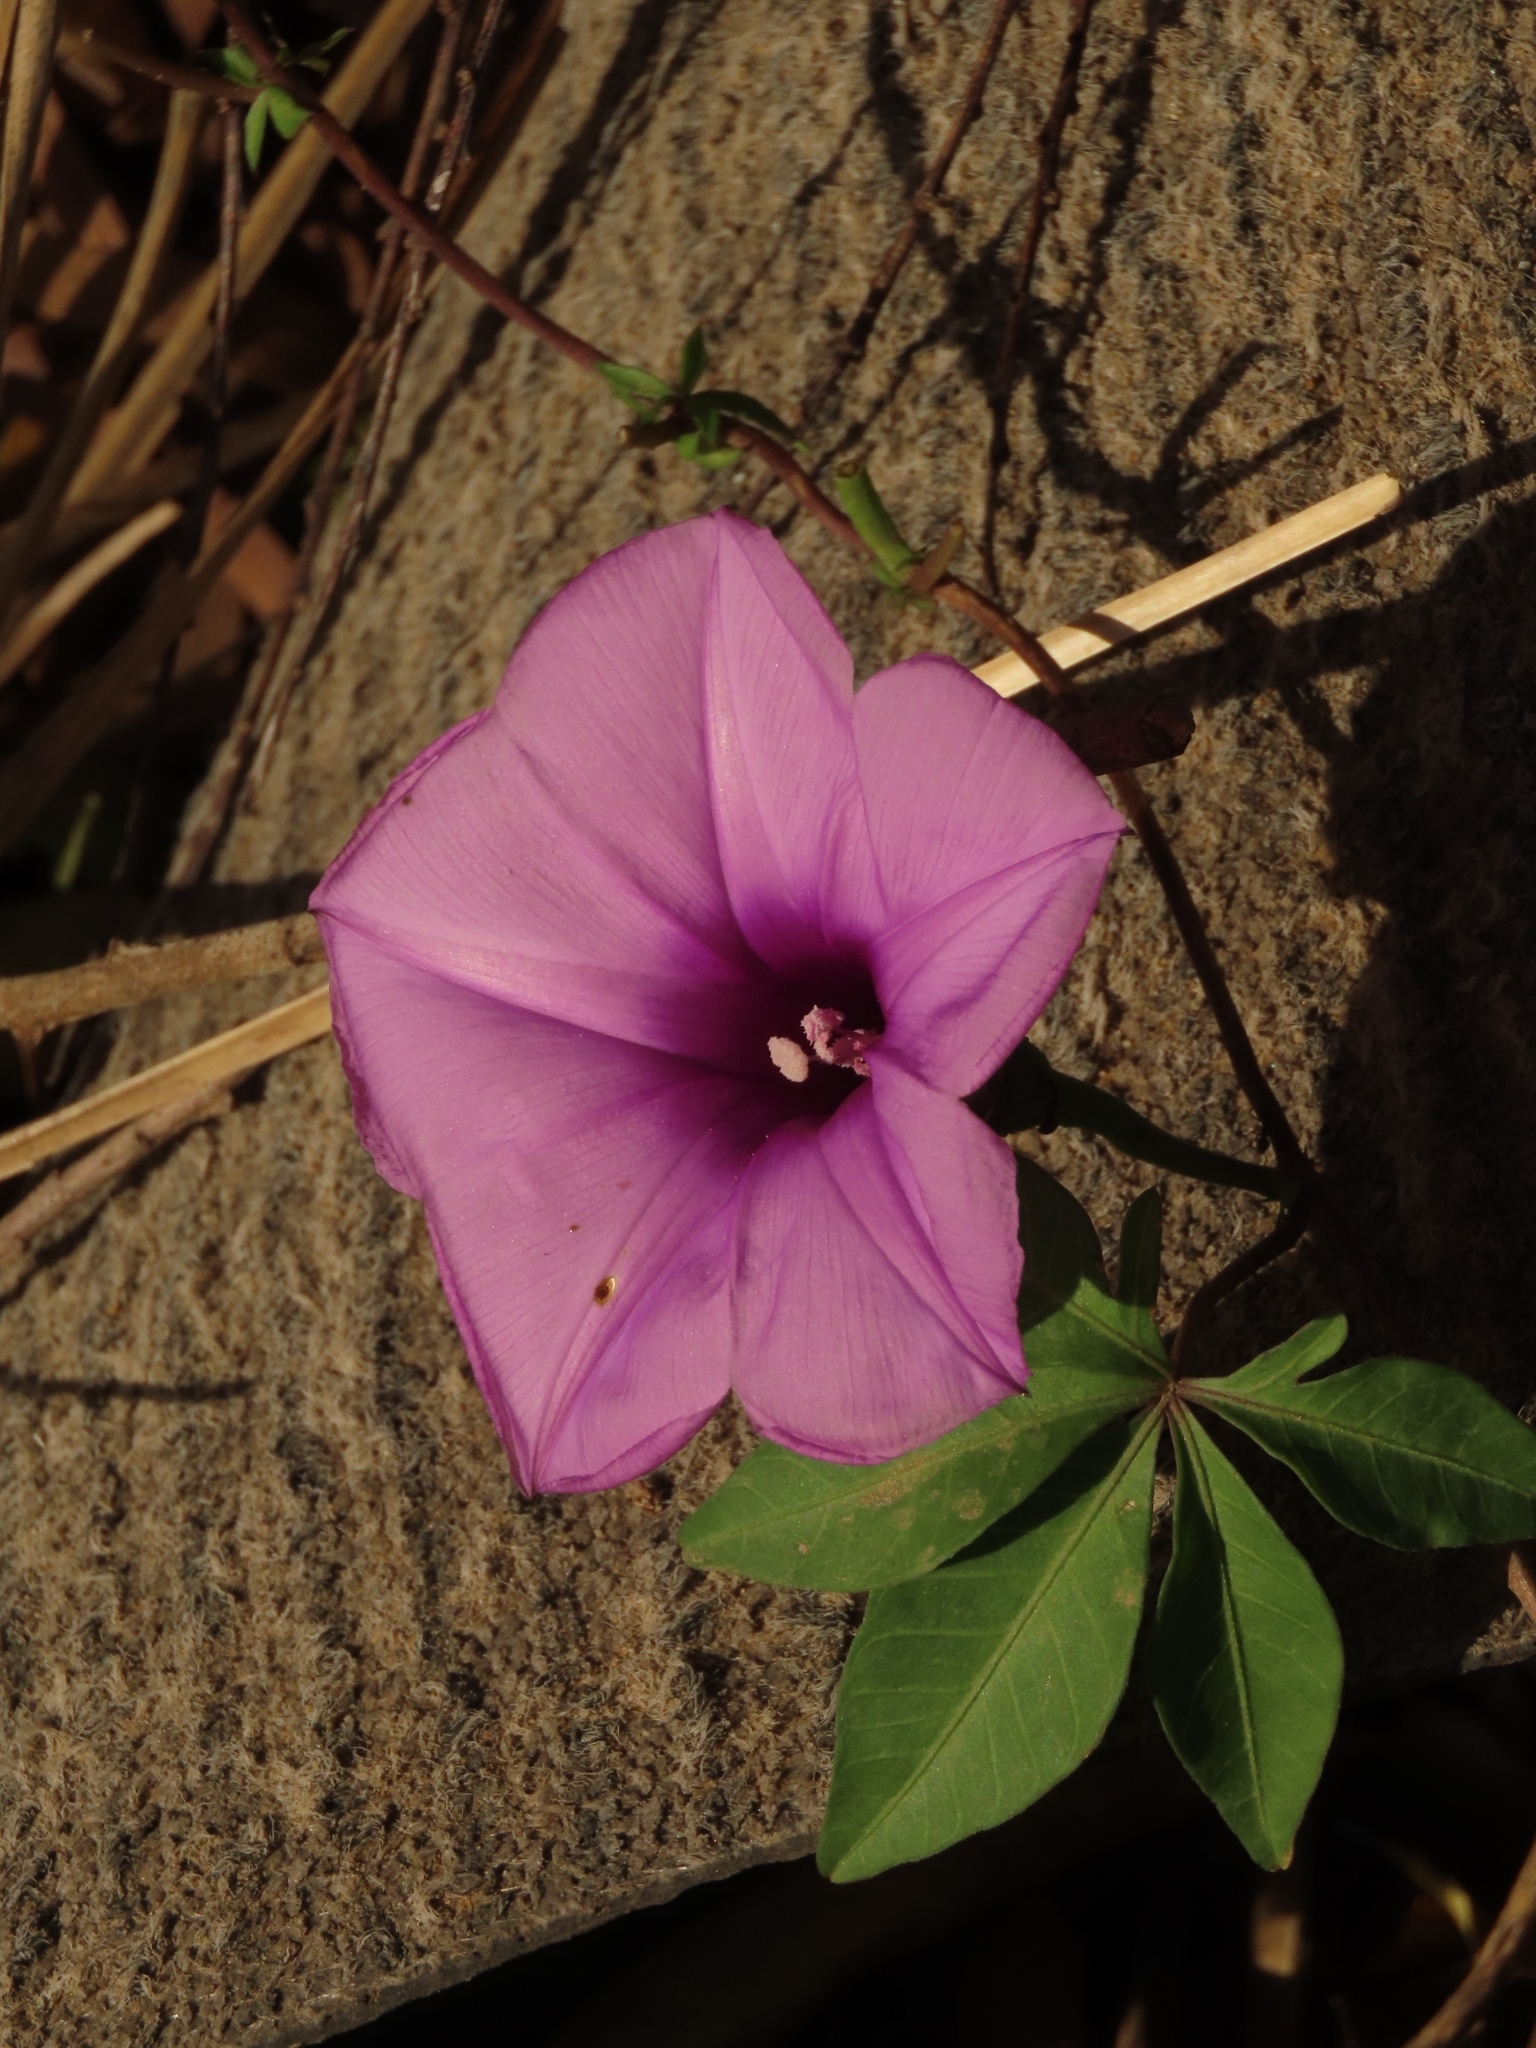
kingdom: Plantae
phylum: Tracheophyta
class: Magnoliopsida
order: Solanales
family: Convolvulaceae
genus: Ipomoea
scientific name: Ipomoea cairica
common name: Mile a minute vine
